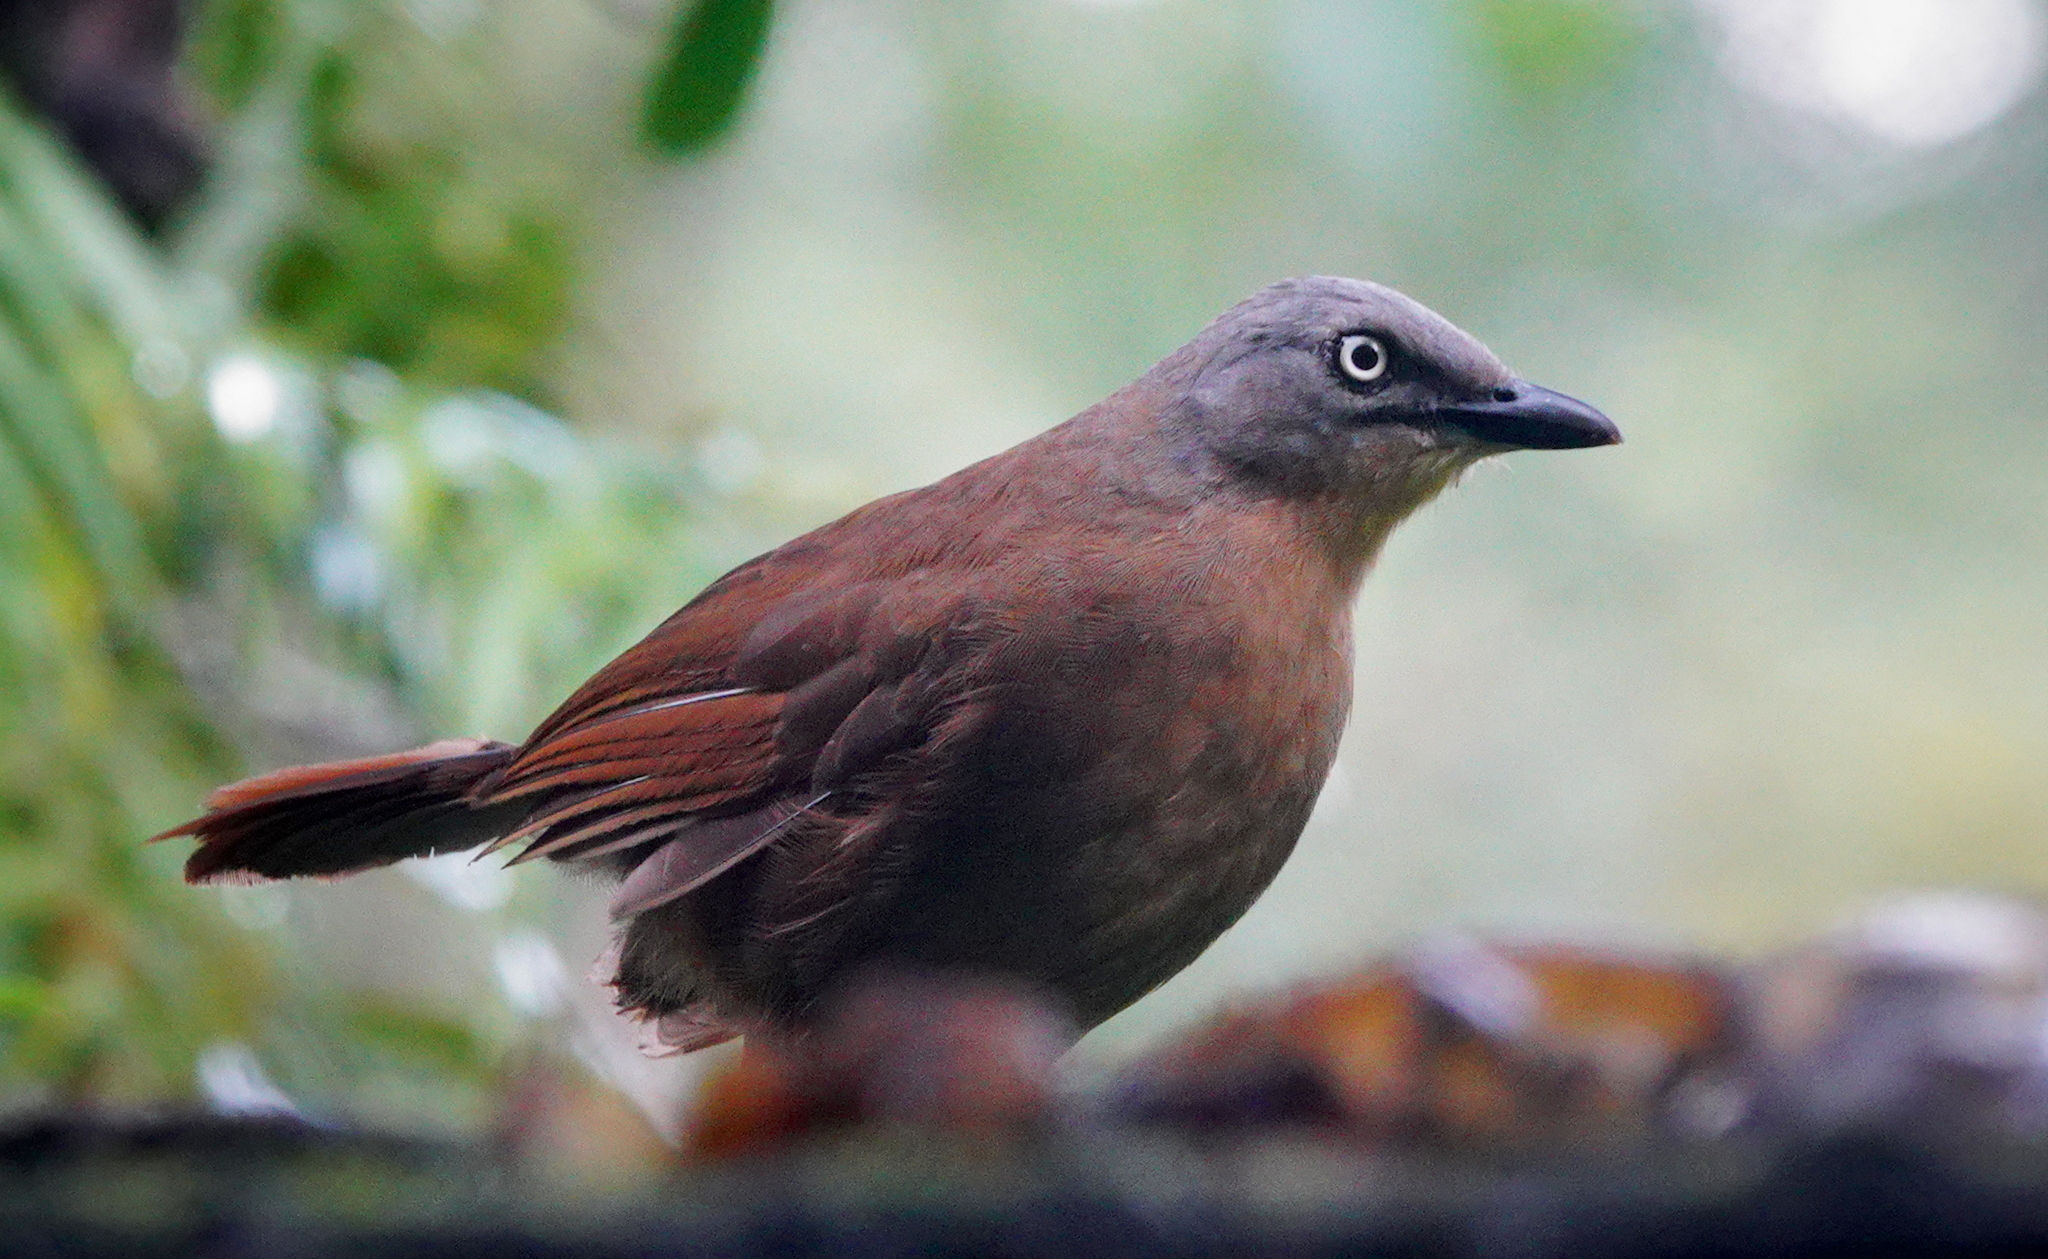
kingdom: Animalia
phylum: Chordata
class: Aves
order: Passeriformes
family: Leiothrichidae
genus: Garrulax
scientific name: Garrulax cinereifrons
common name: Ashy-headed laughingthrush
